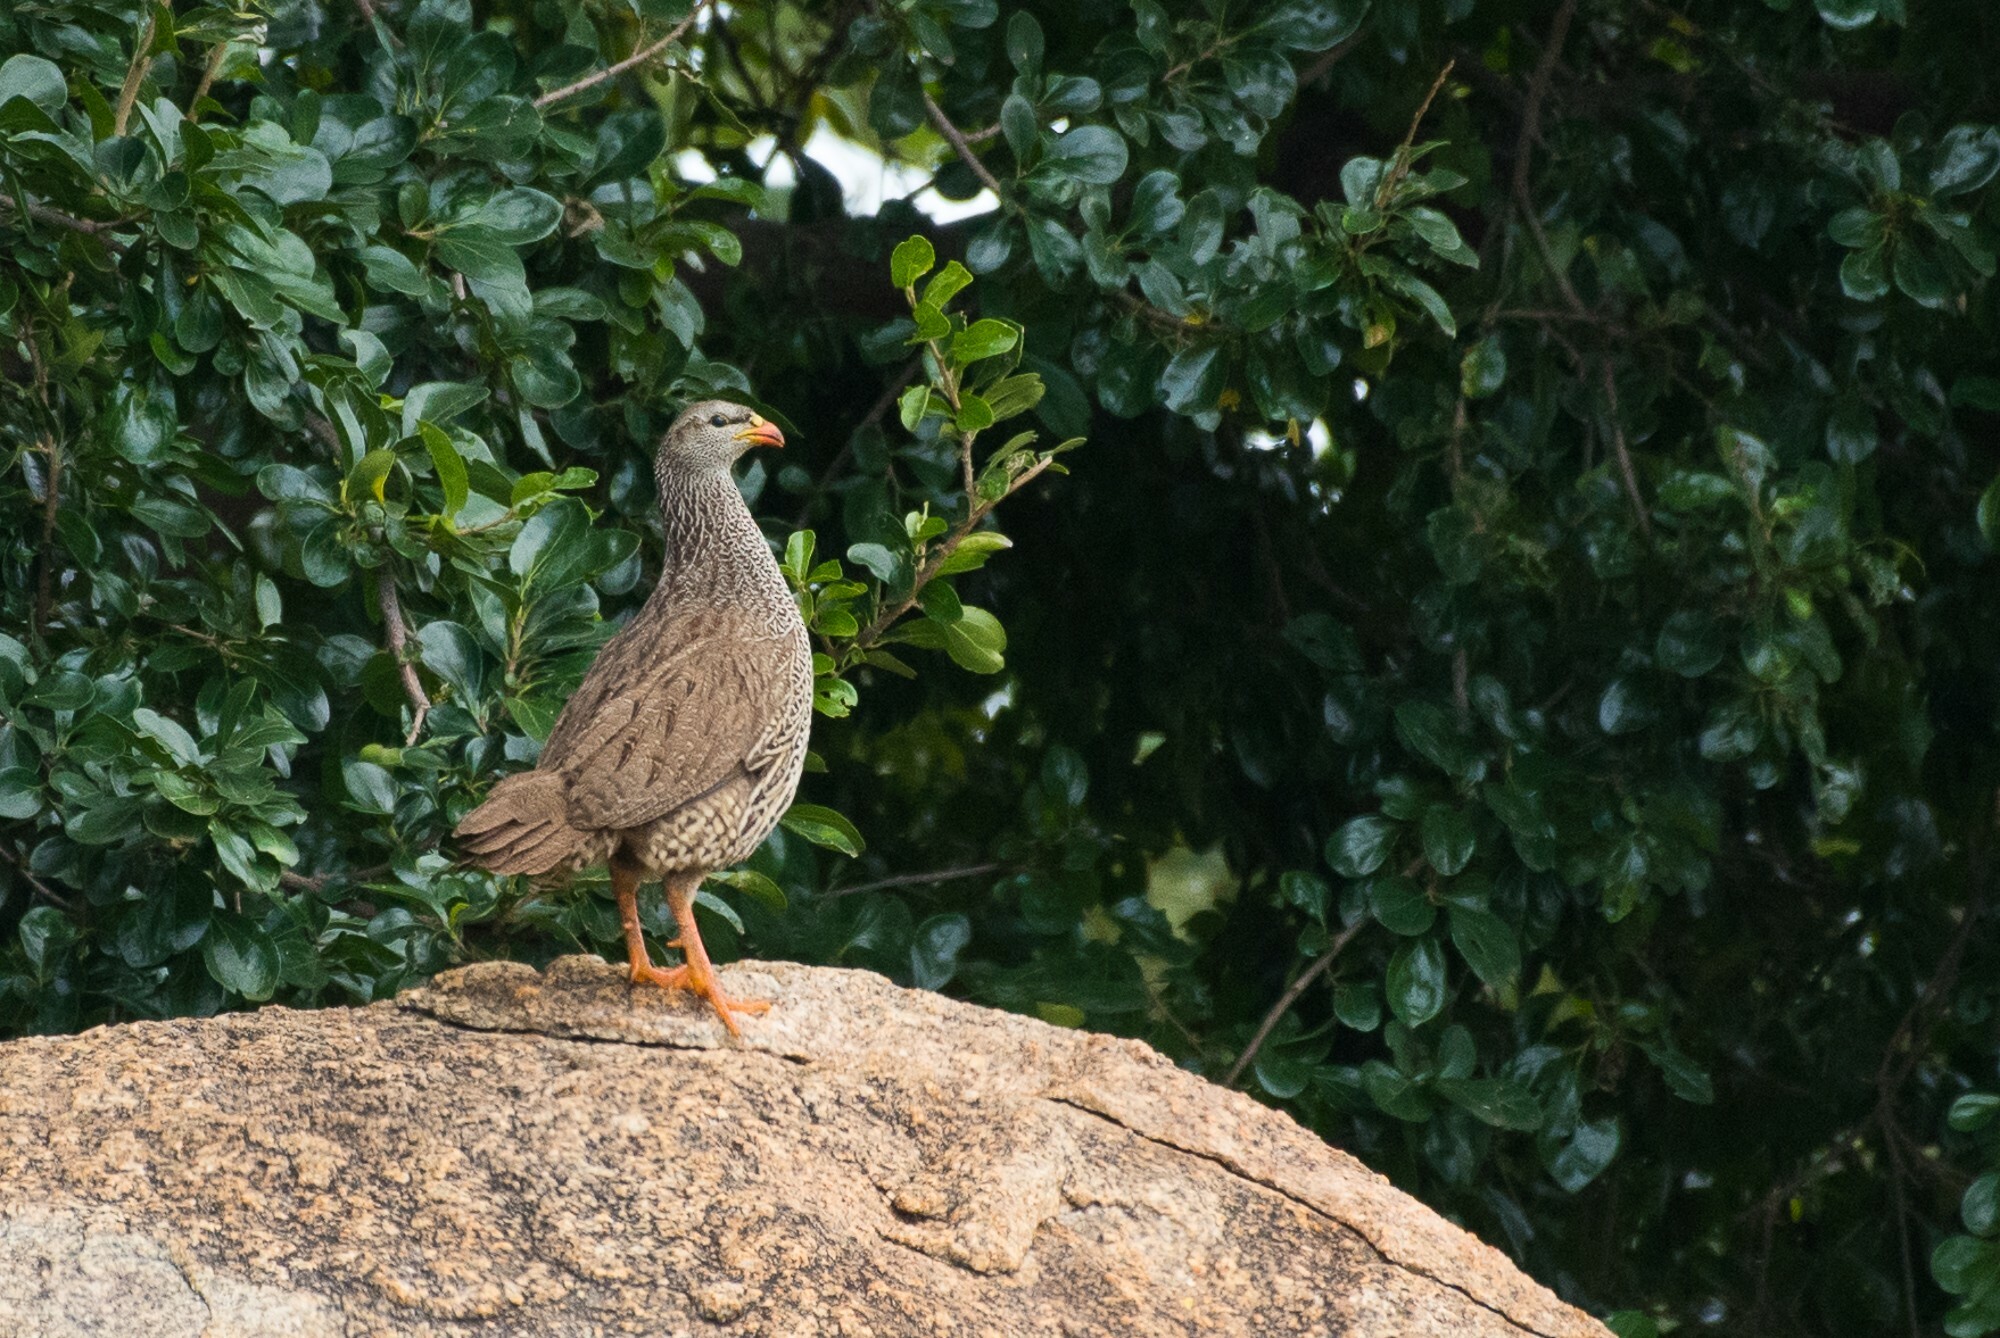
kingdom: Animalia
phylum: Chordata
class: Aves
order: Galliformes
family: Phasianidae
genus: Pternistis
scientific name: Pternistis natalensis
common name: Natal spurfowl
